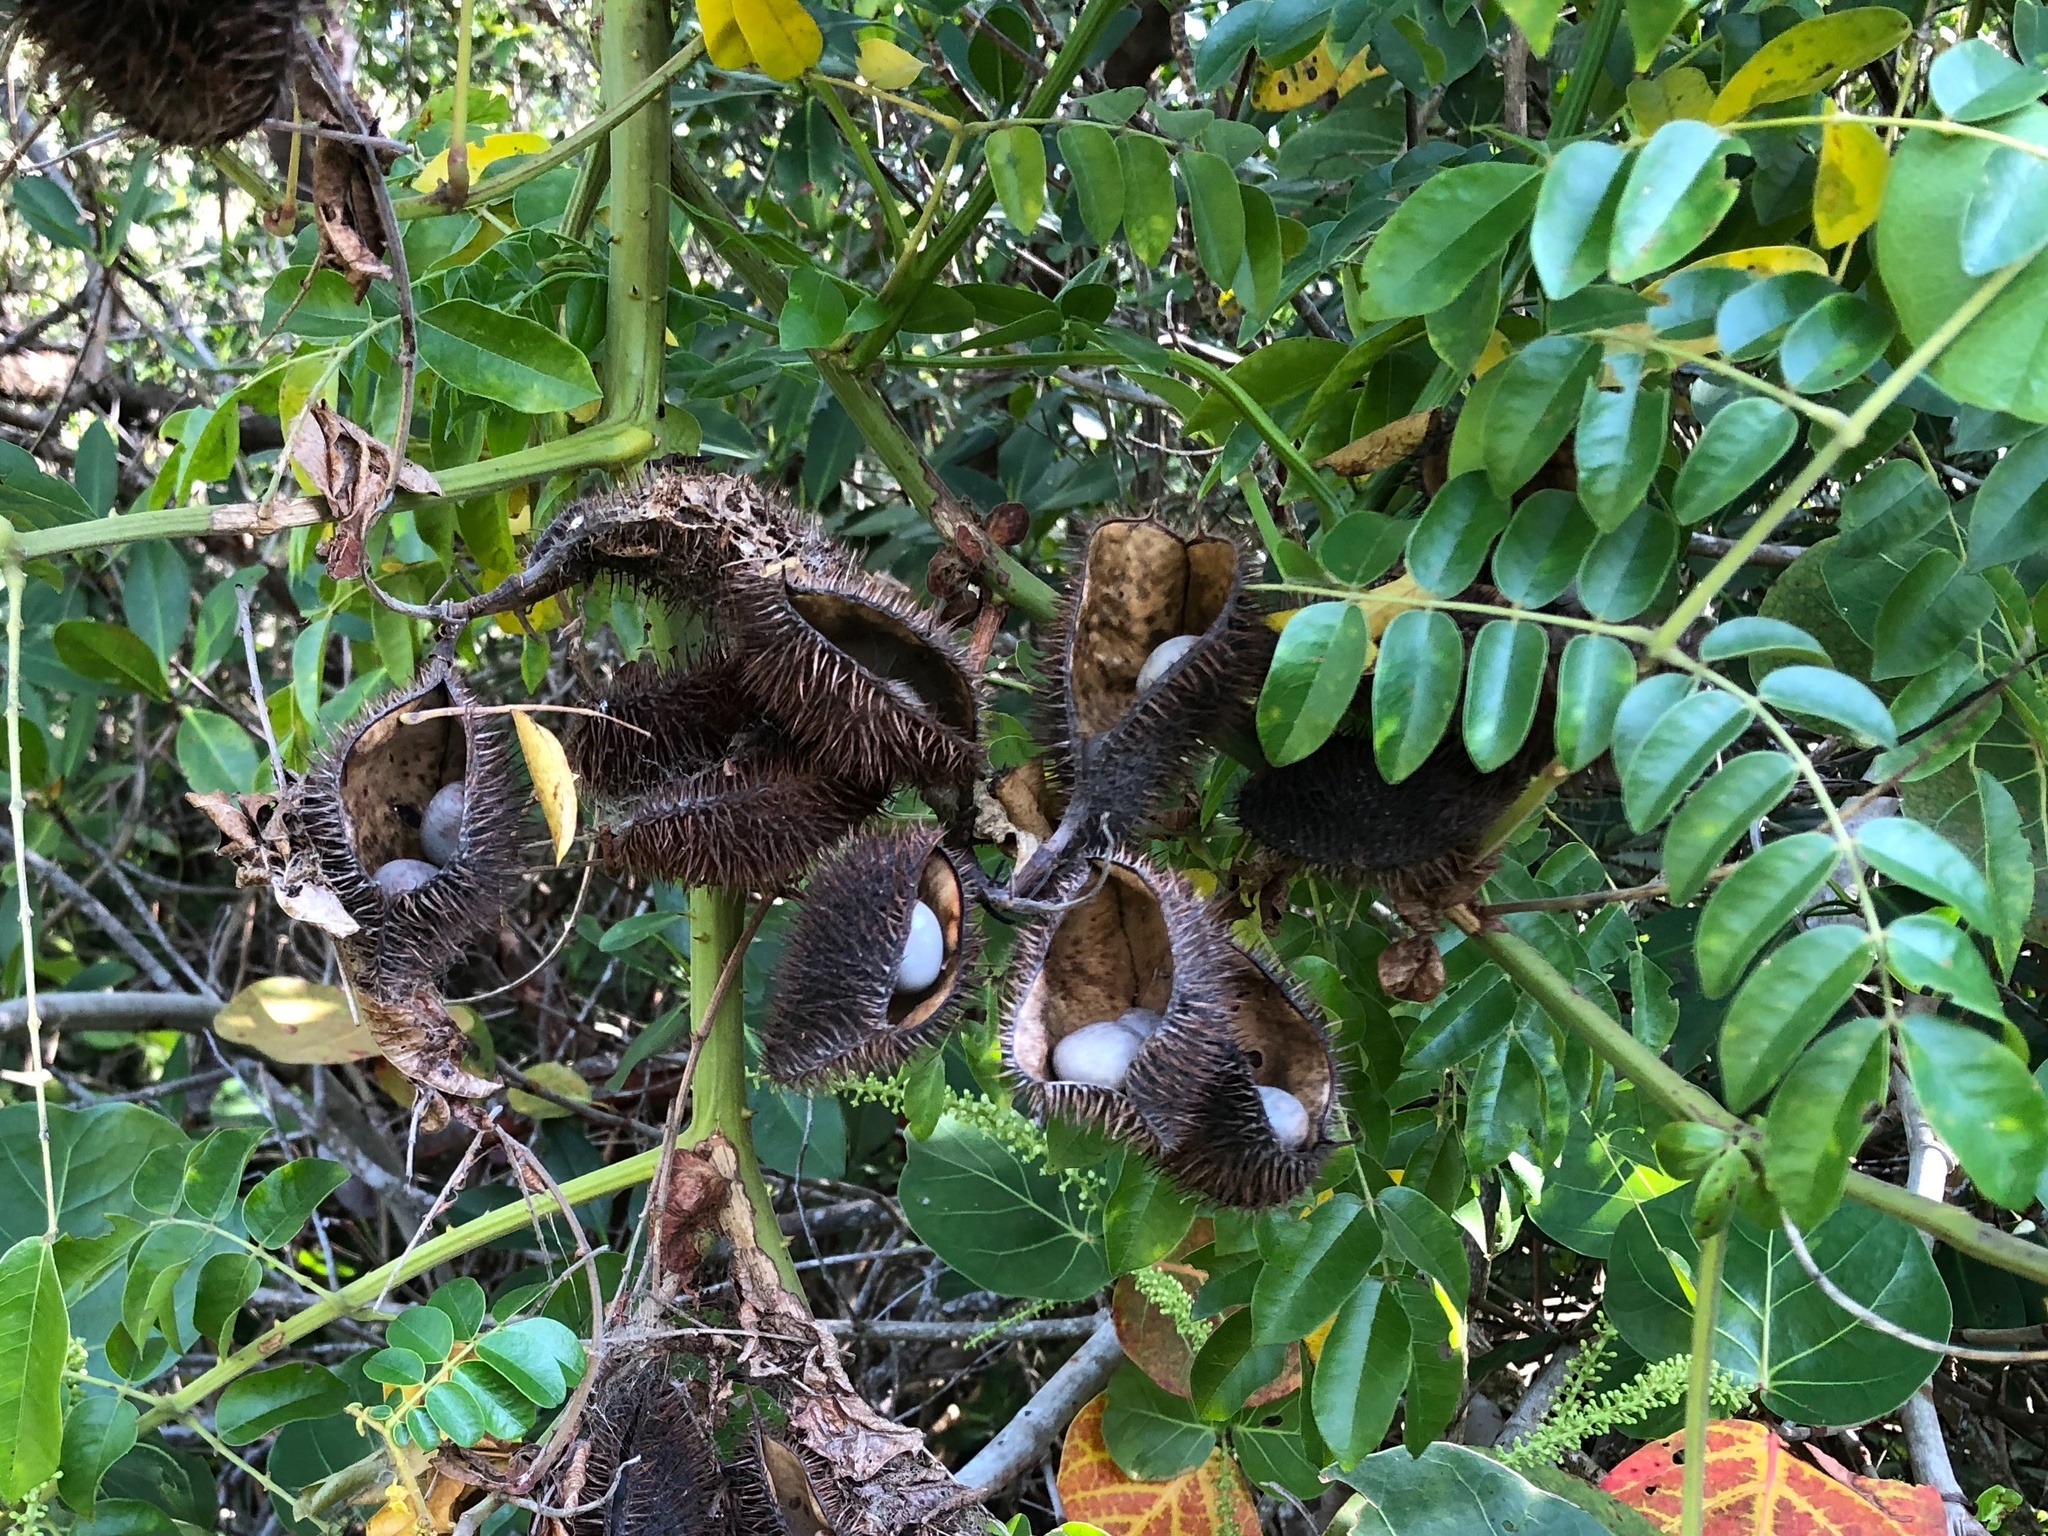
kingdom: Plantae
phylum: Tracheophyta
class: Magnoliopsida
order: Fabales
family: Fabaceae
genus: Guilandina
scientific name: Guilandina bonduc
